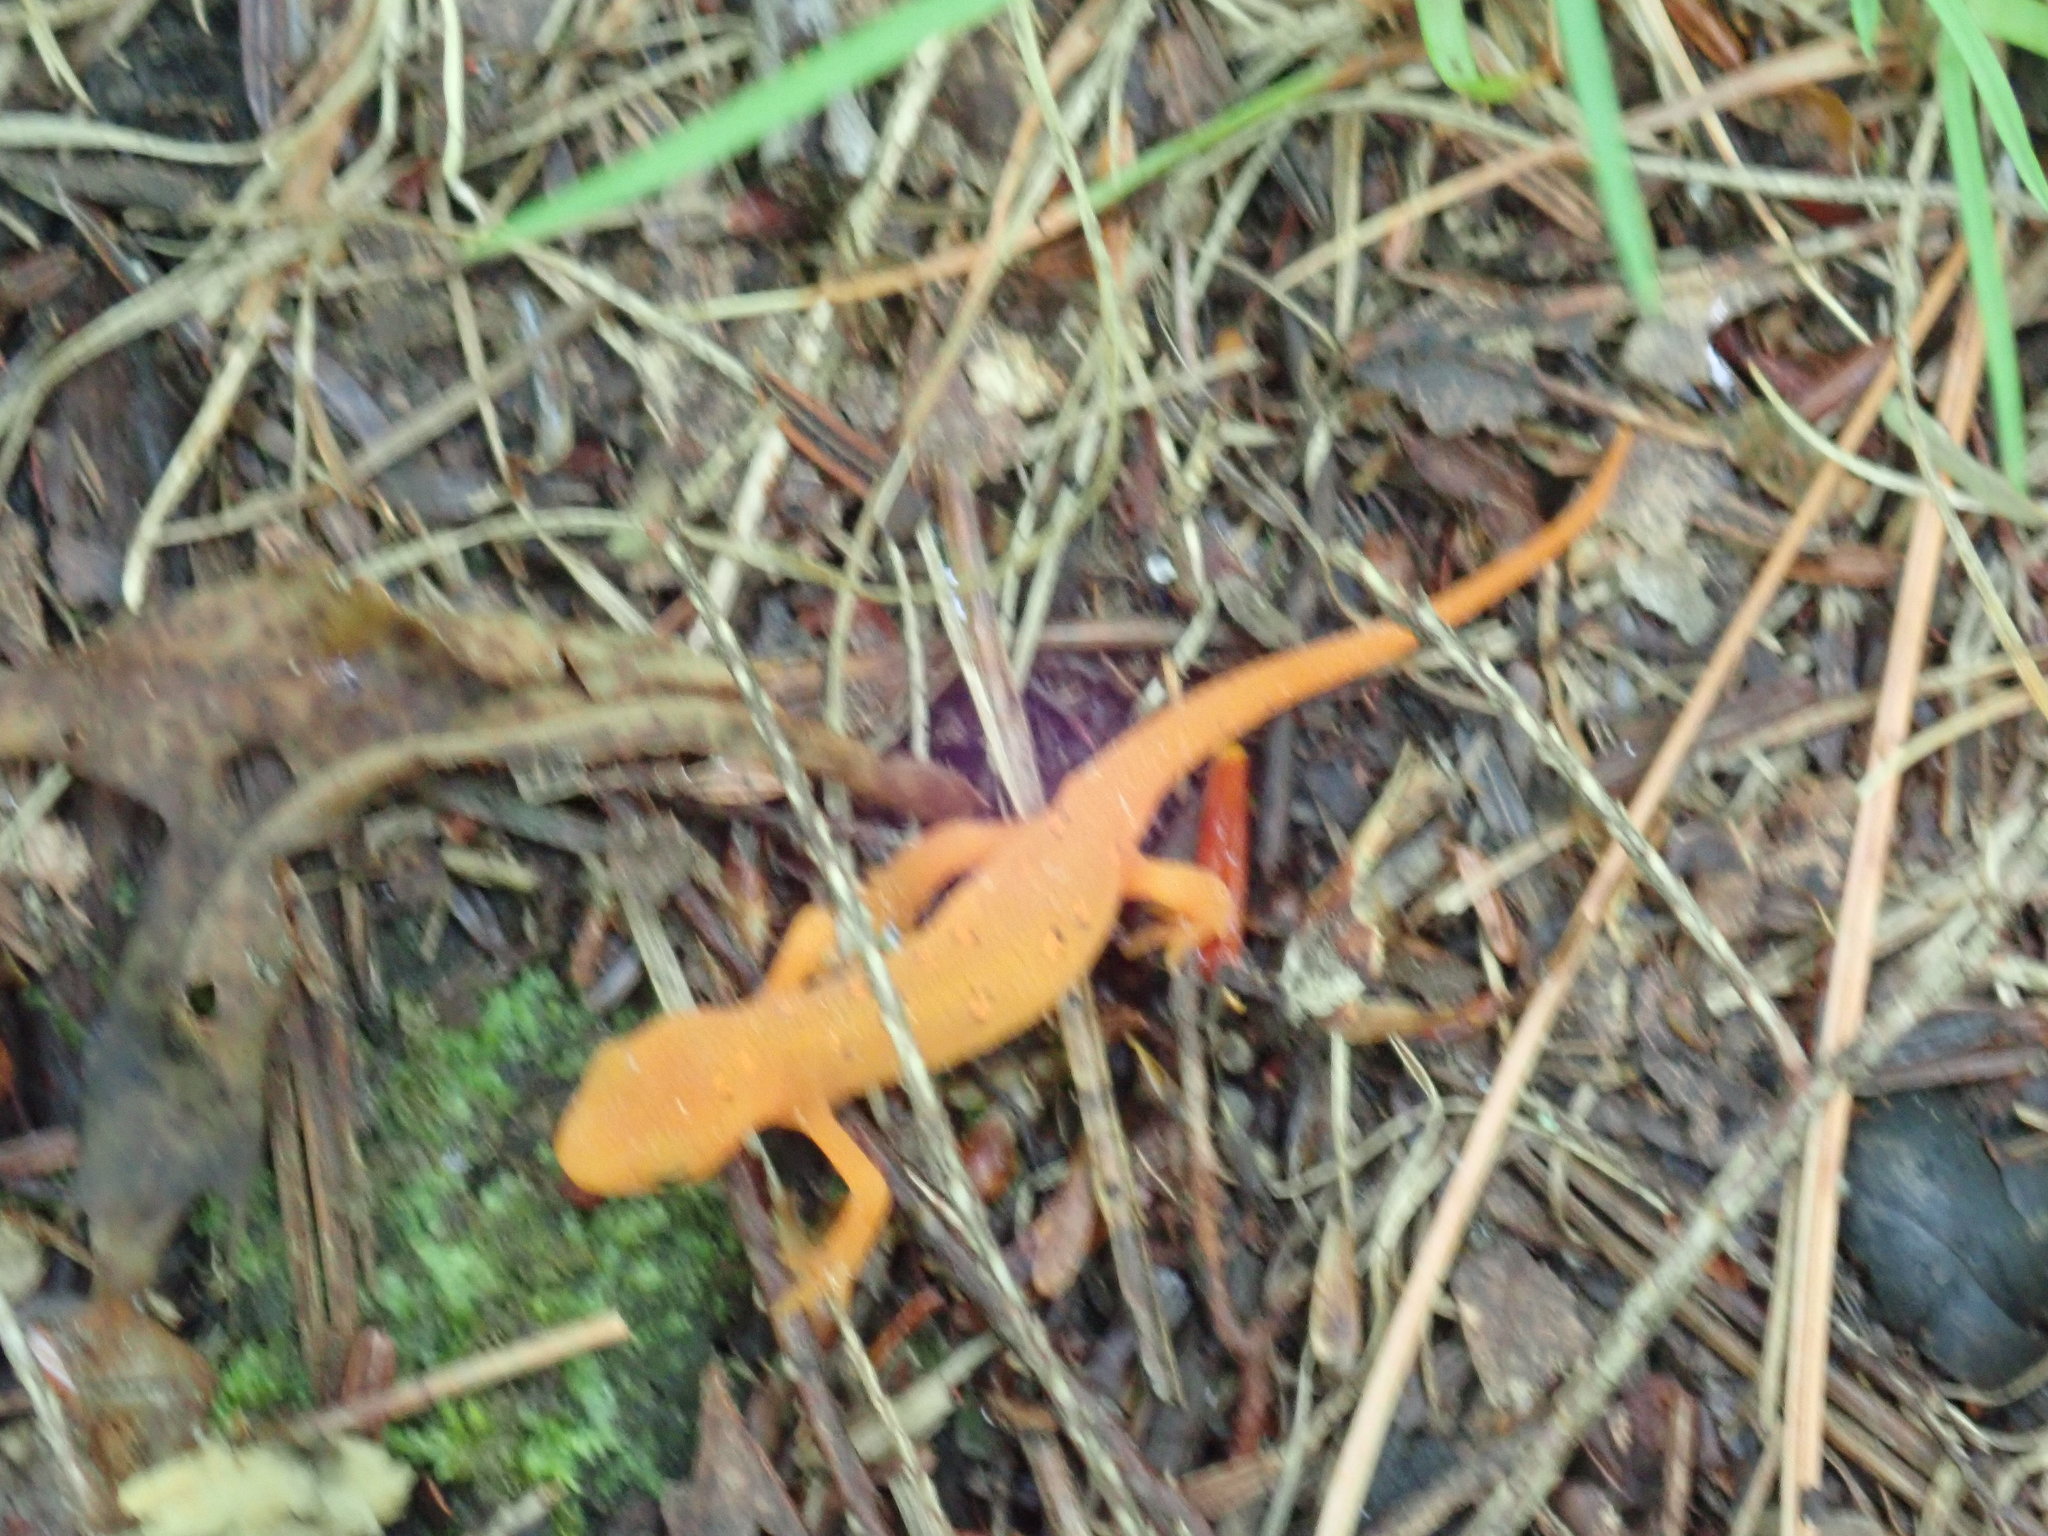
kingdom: Animalia
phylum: Chordata
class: Amphibia
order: Caudata
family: Salamandridae
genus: Notophthalmus
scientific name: Notophthalmus viridescens
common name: Eastern newt
